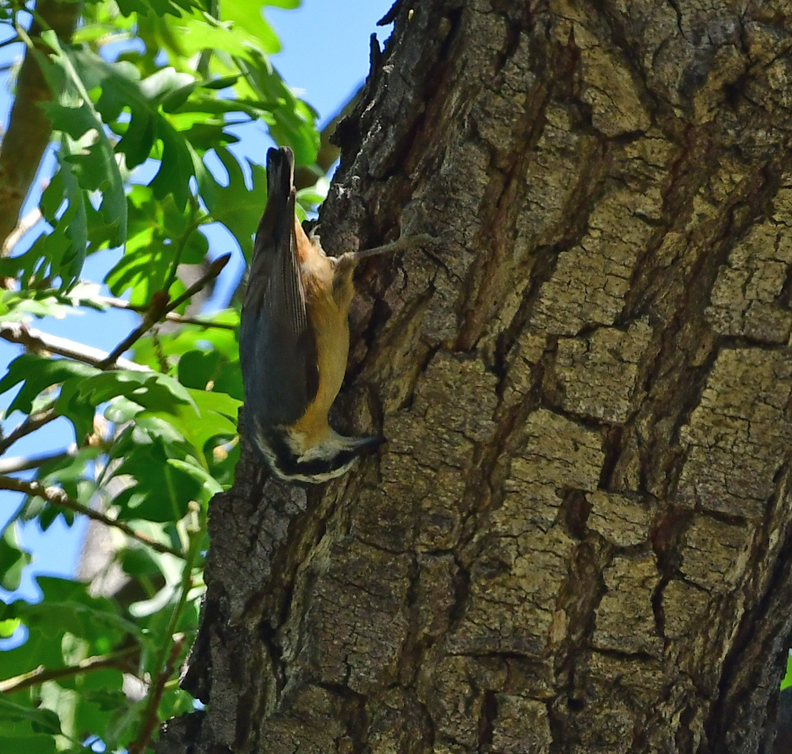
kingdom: Animalia
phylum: Chordata
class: Aves
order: Passeriformes
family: Sittidae
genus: Sitta
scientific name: Sitta canadensis
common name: Red-breasted nuthatch
